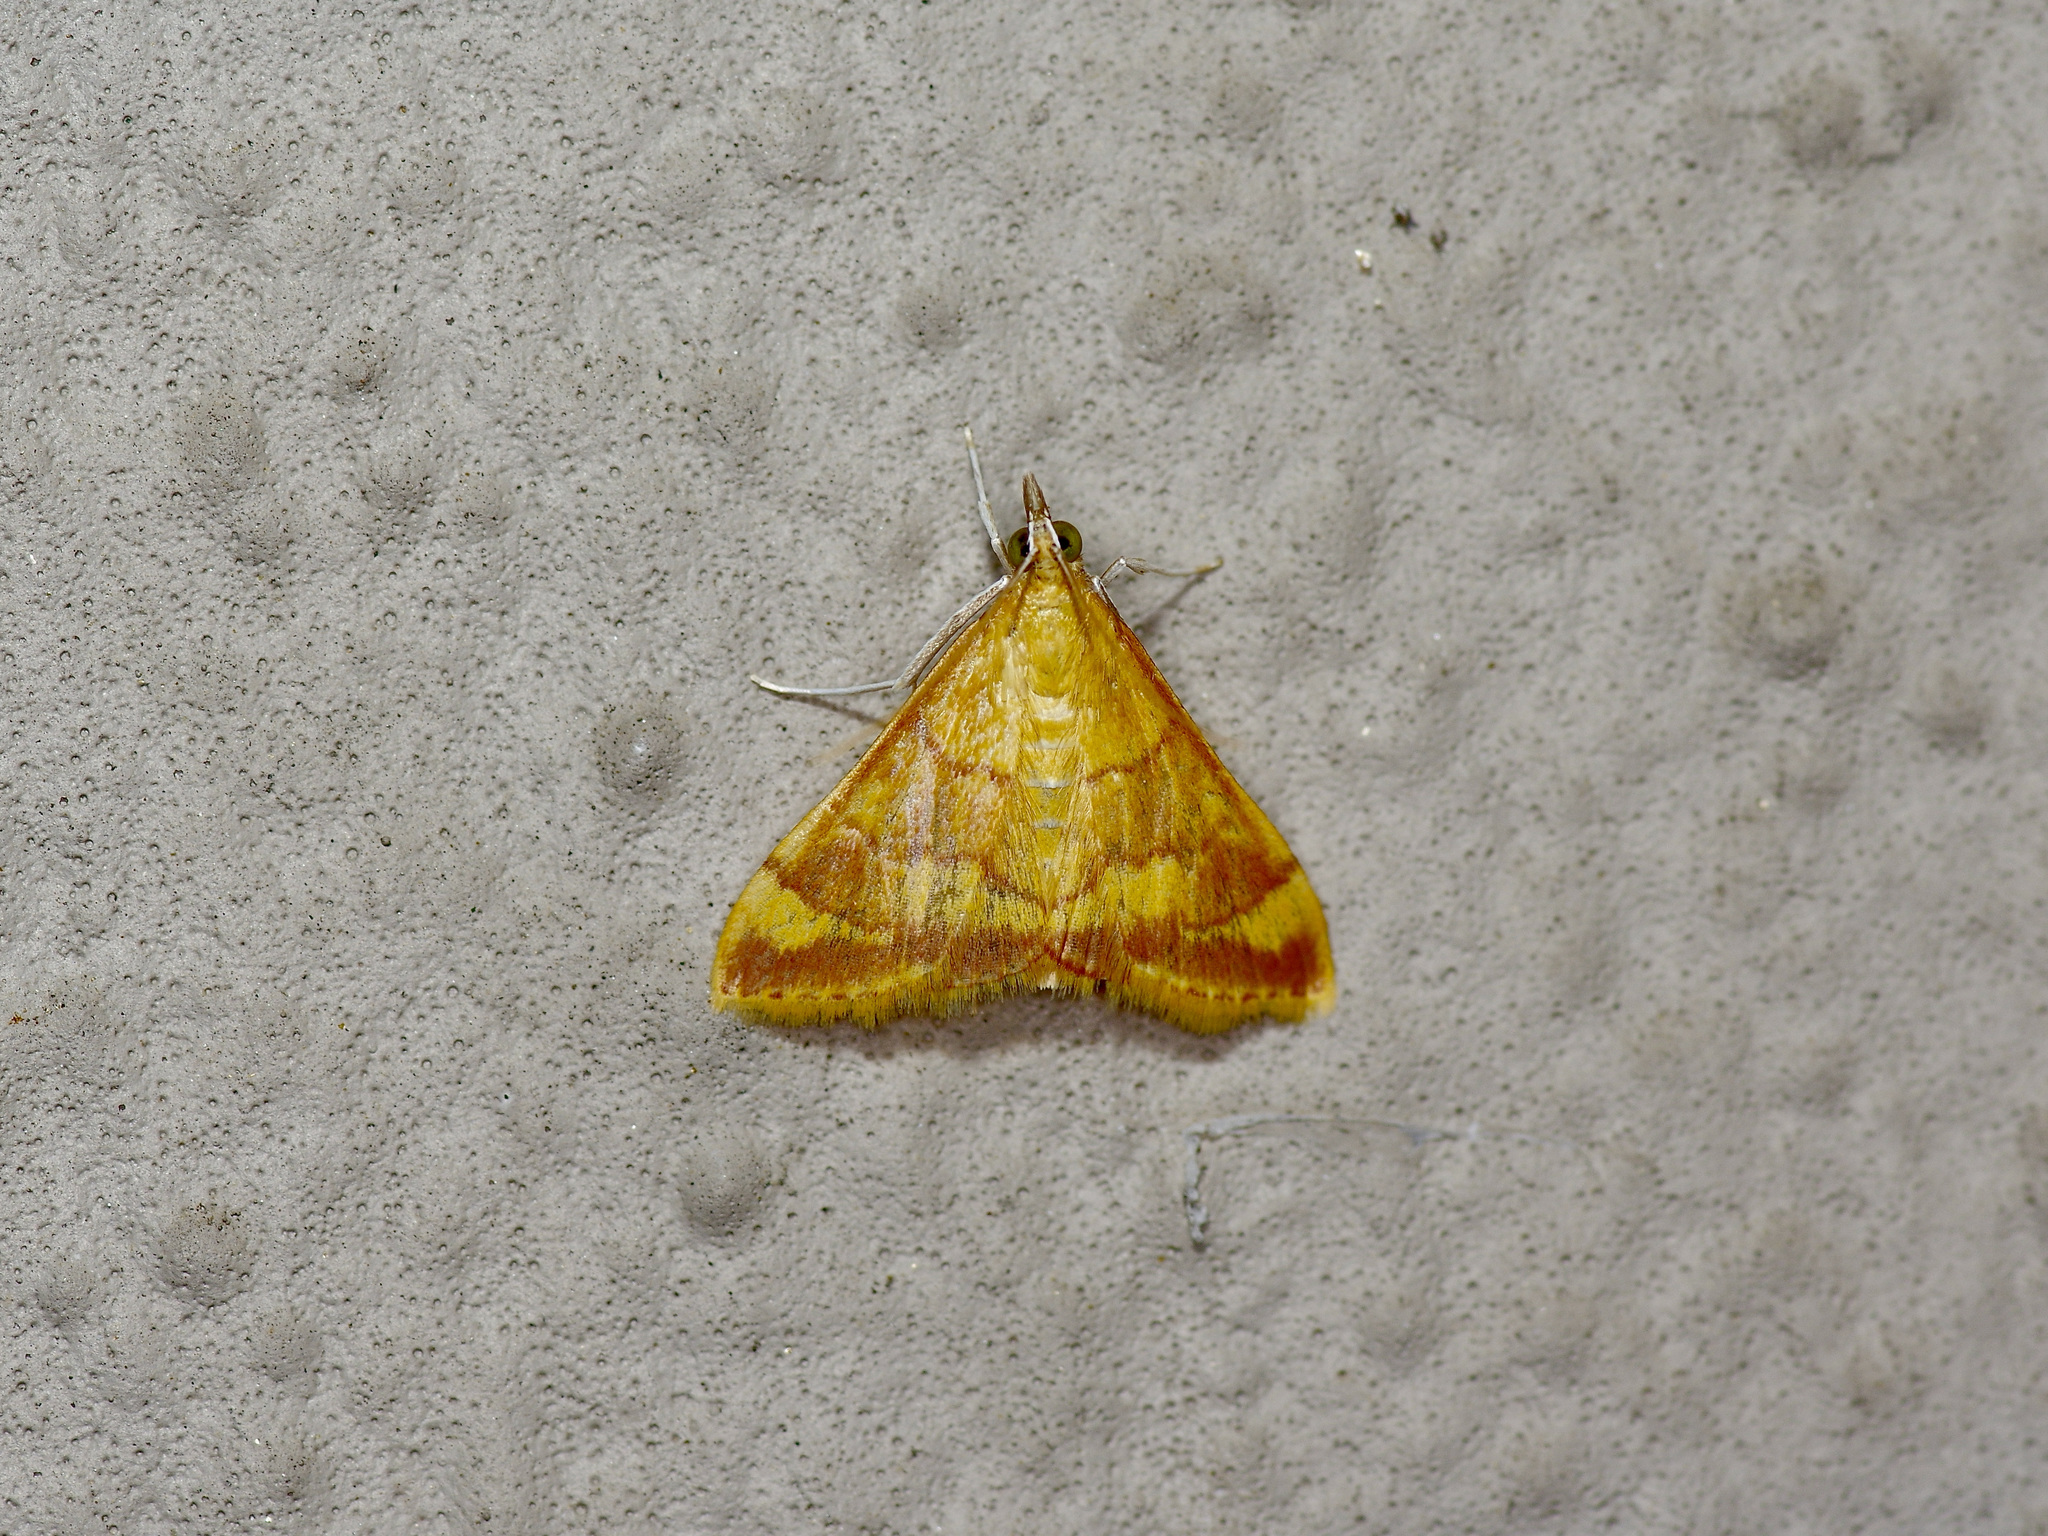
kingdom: Animalia
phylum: Arthropoda
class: Insecta
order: Lepidoptera
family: Crambidae
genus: Pyrausta
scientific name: Pyrausta pseudonythesalis
